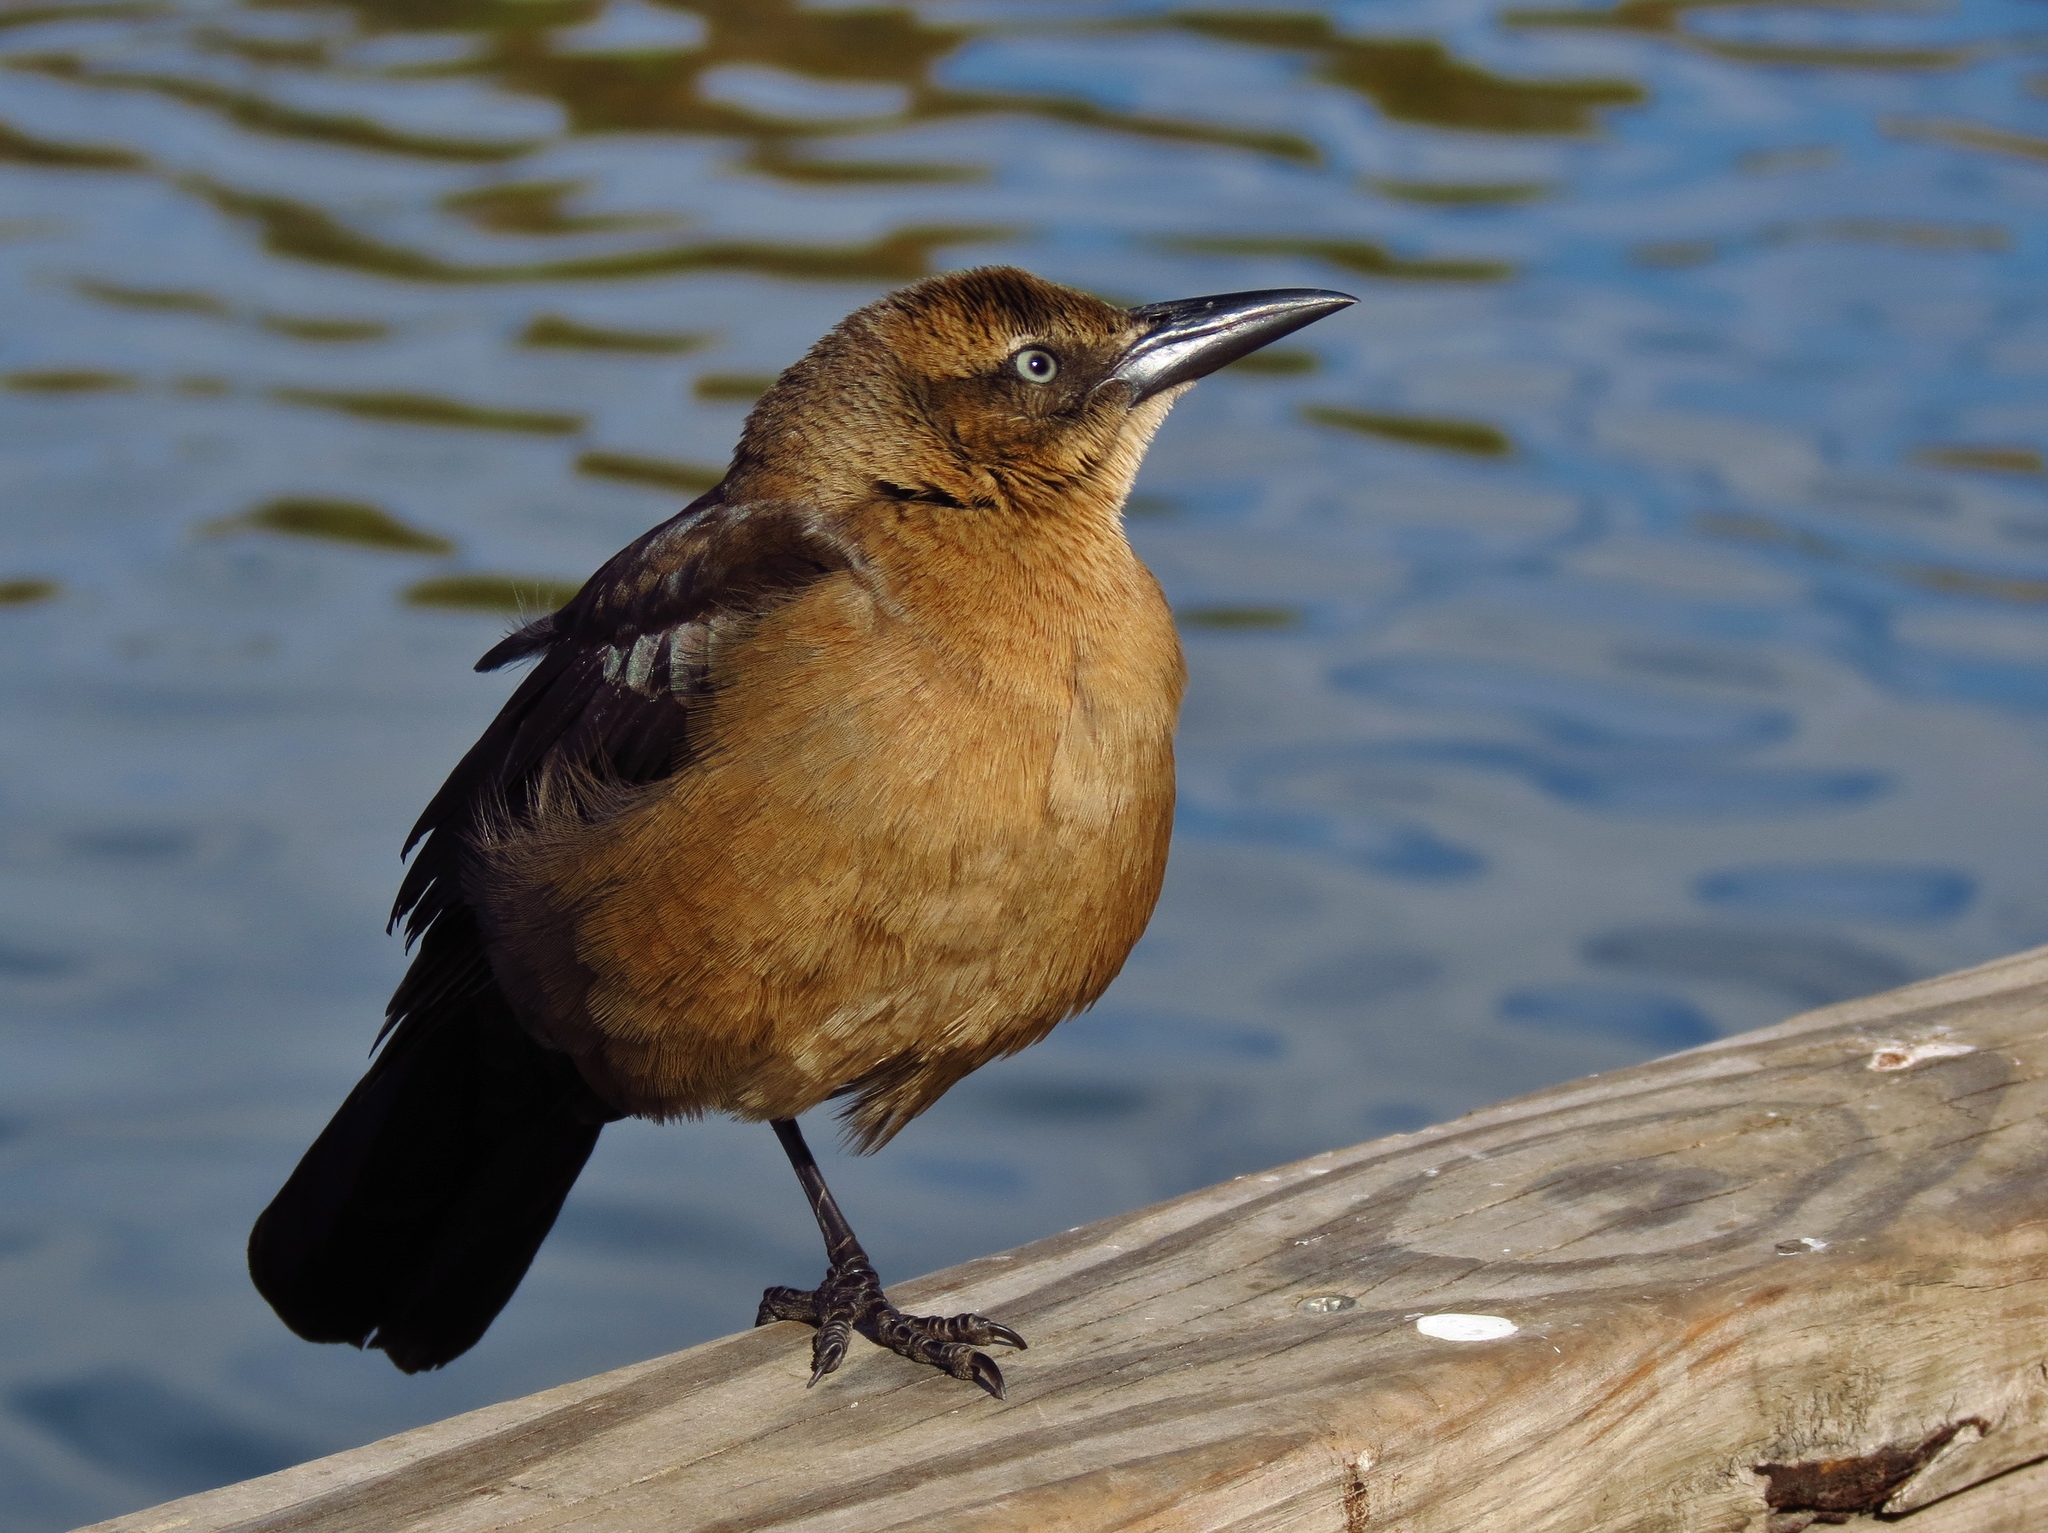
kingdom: Animalia
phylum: Chordata
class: Aves
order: Passeriformes
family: Icteridae
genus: Quiscalus
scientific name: Quiscalus mexicanus
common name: Great-tailed grackle
